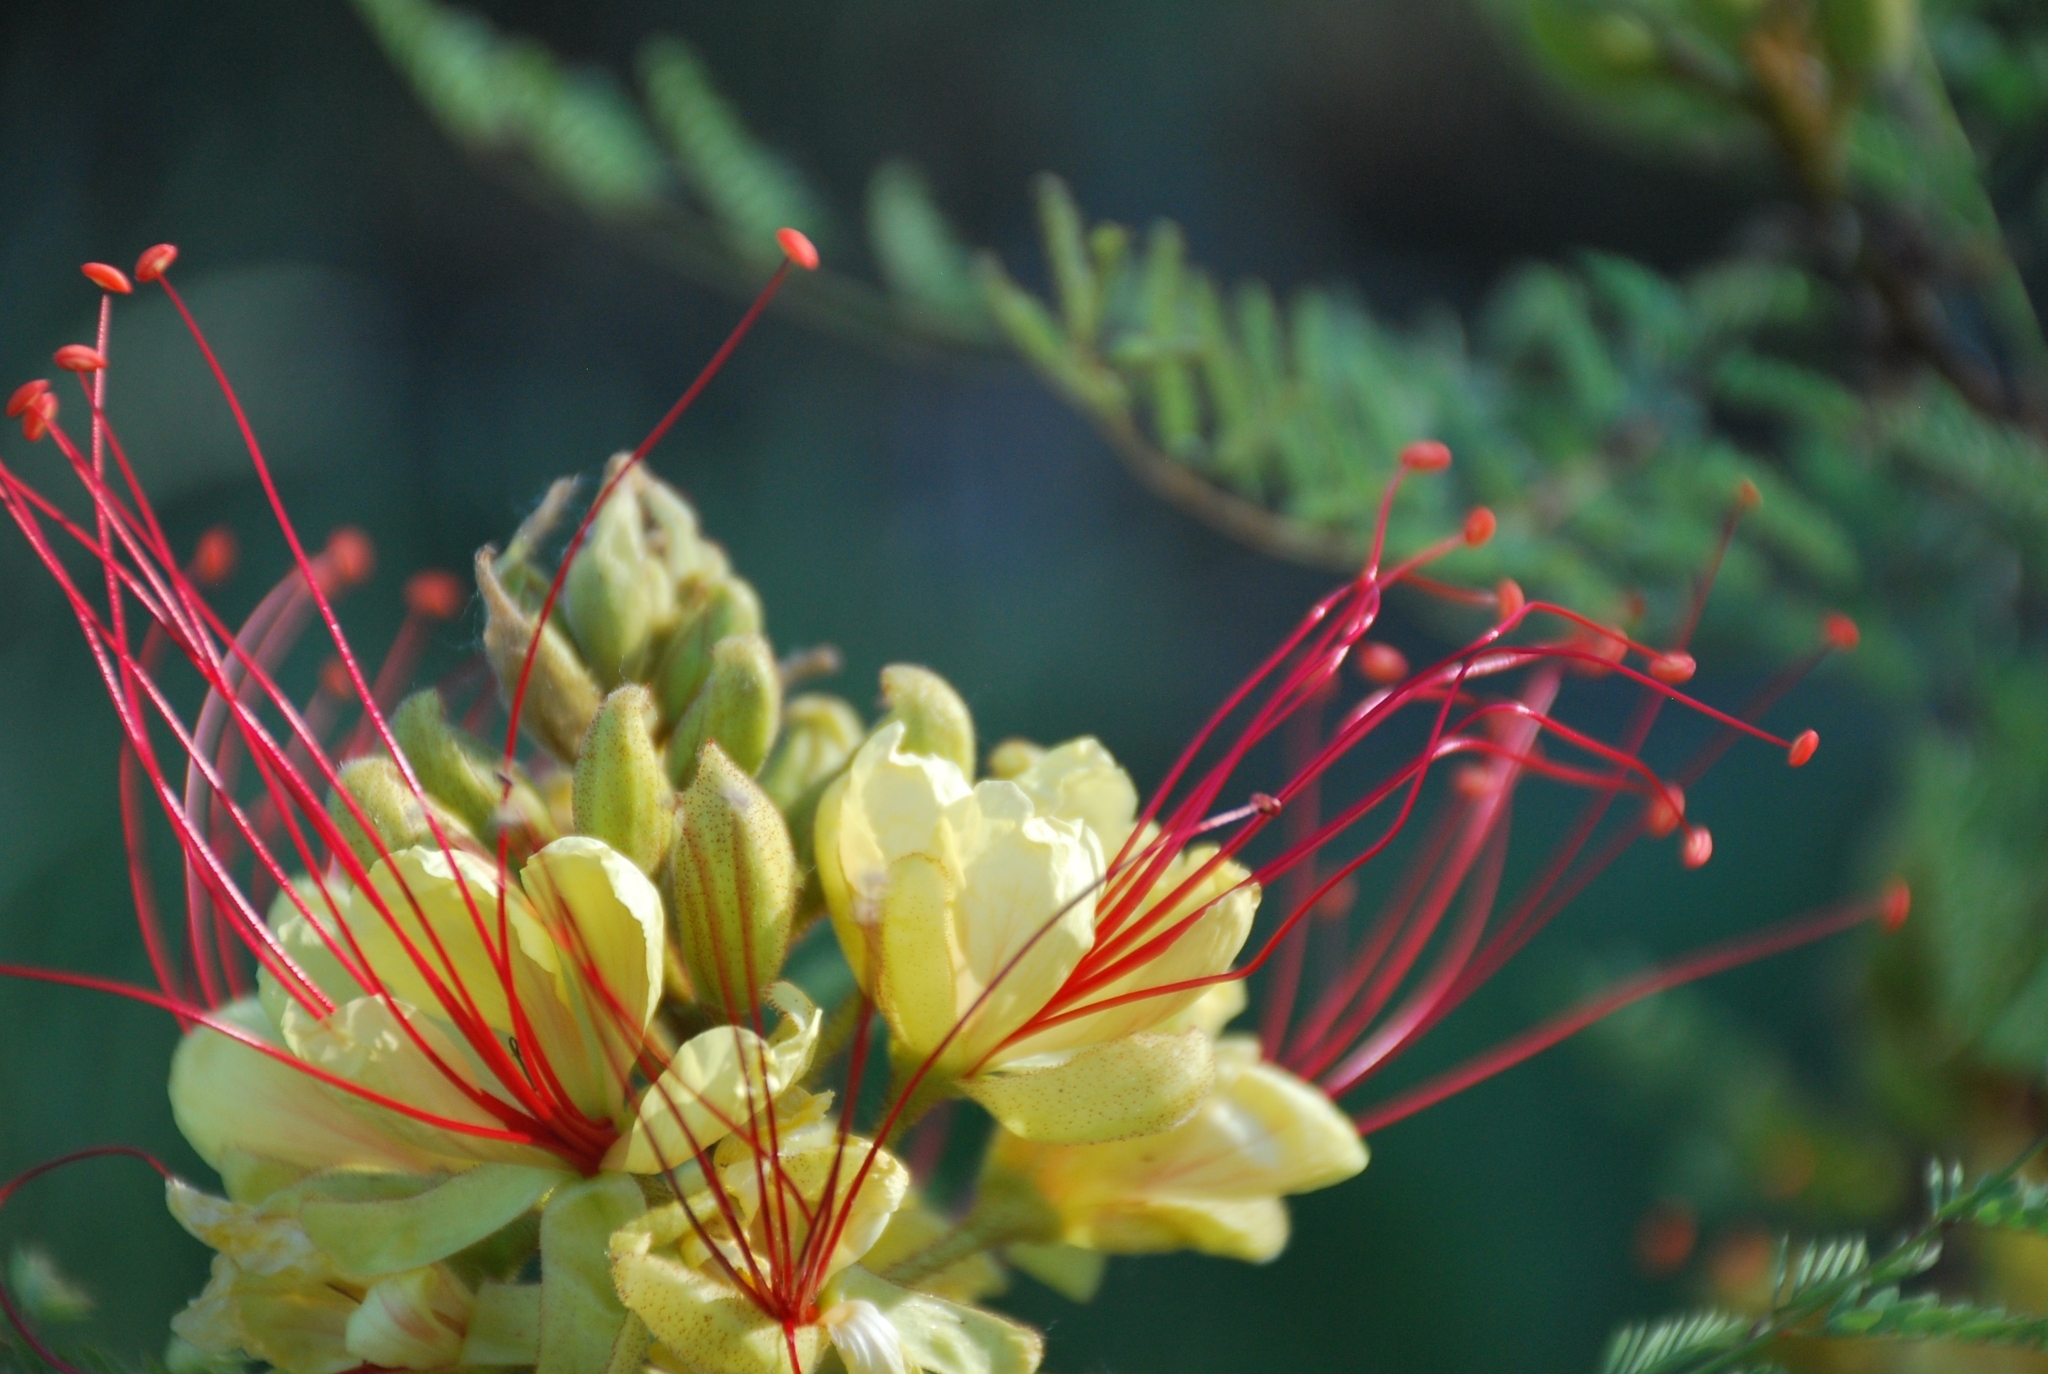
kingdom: Plantae
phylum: Tracheophyta
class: Magnoliopsida
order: Fabales
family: Fabaceae
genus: Erythrostemon
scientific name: Erythrostemon gilliesii
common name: Bird-of-paradise shrub
